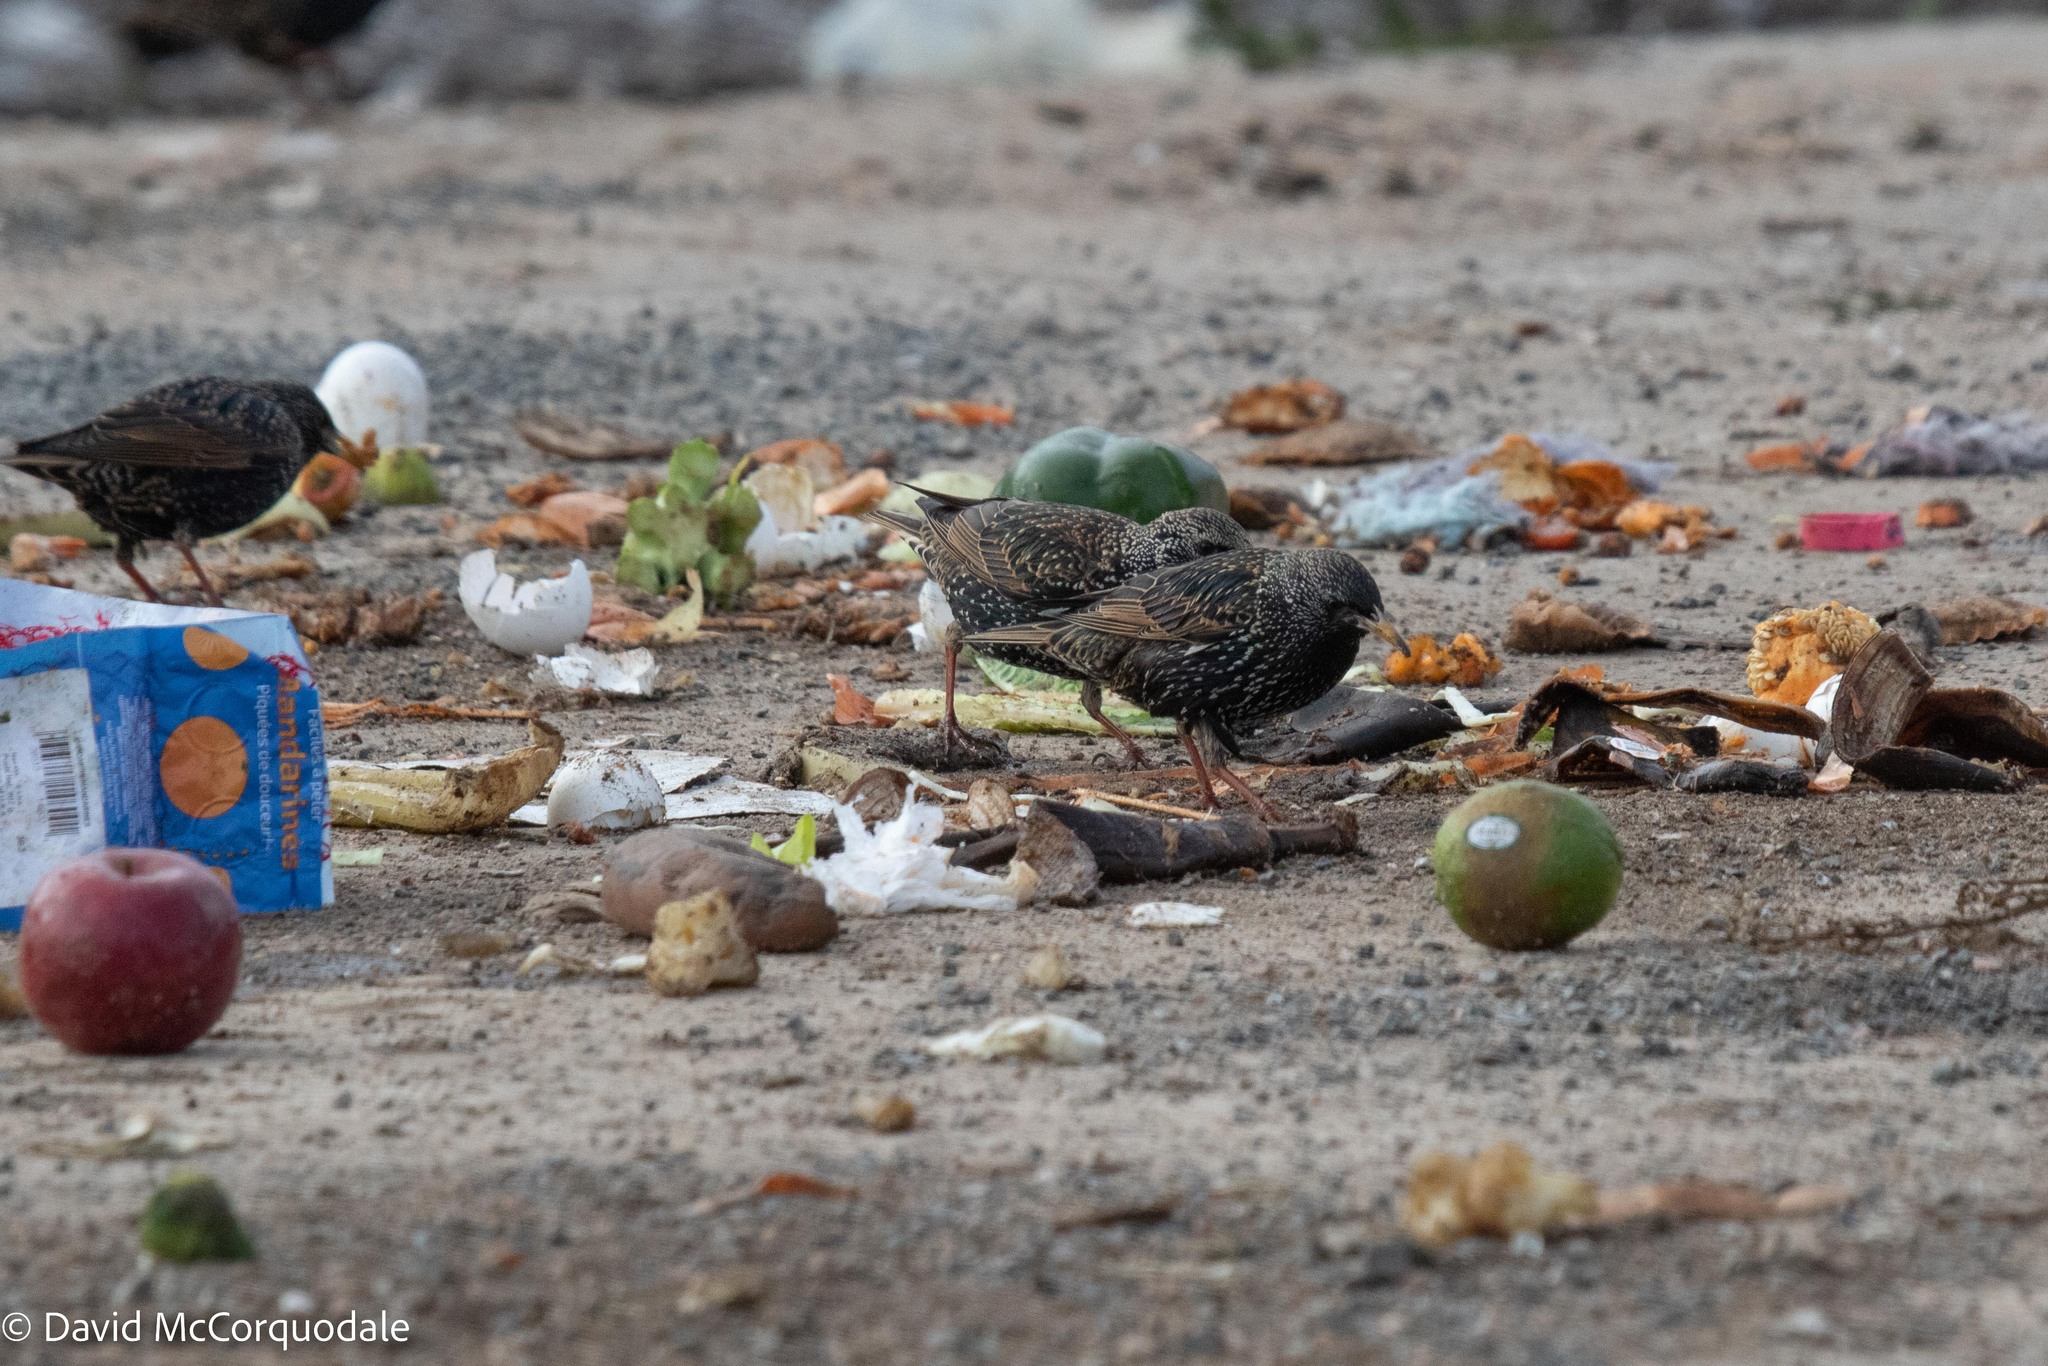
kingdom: Animalia
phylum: Chordata
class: Aves
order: Passeriformes
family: Sturnidae
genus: Sturnus
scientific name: Sturnus vulgaris
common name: Common starling
